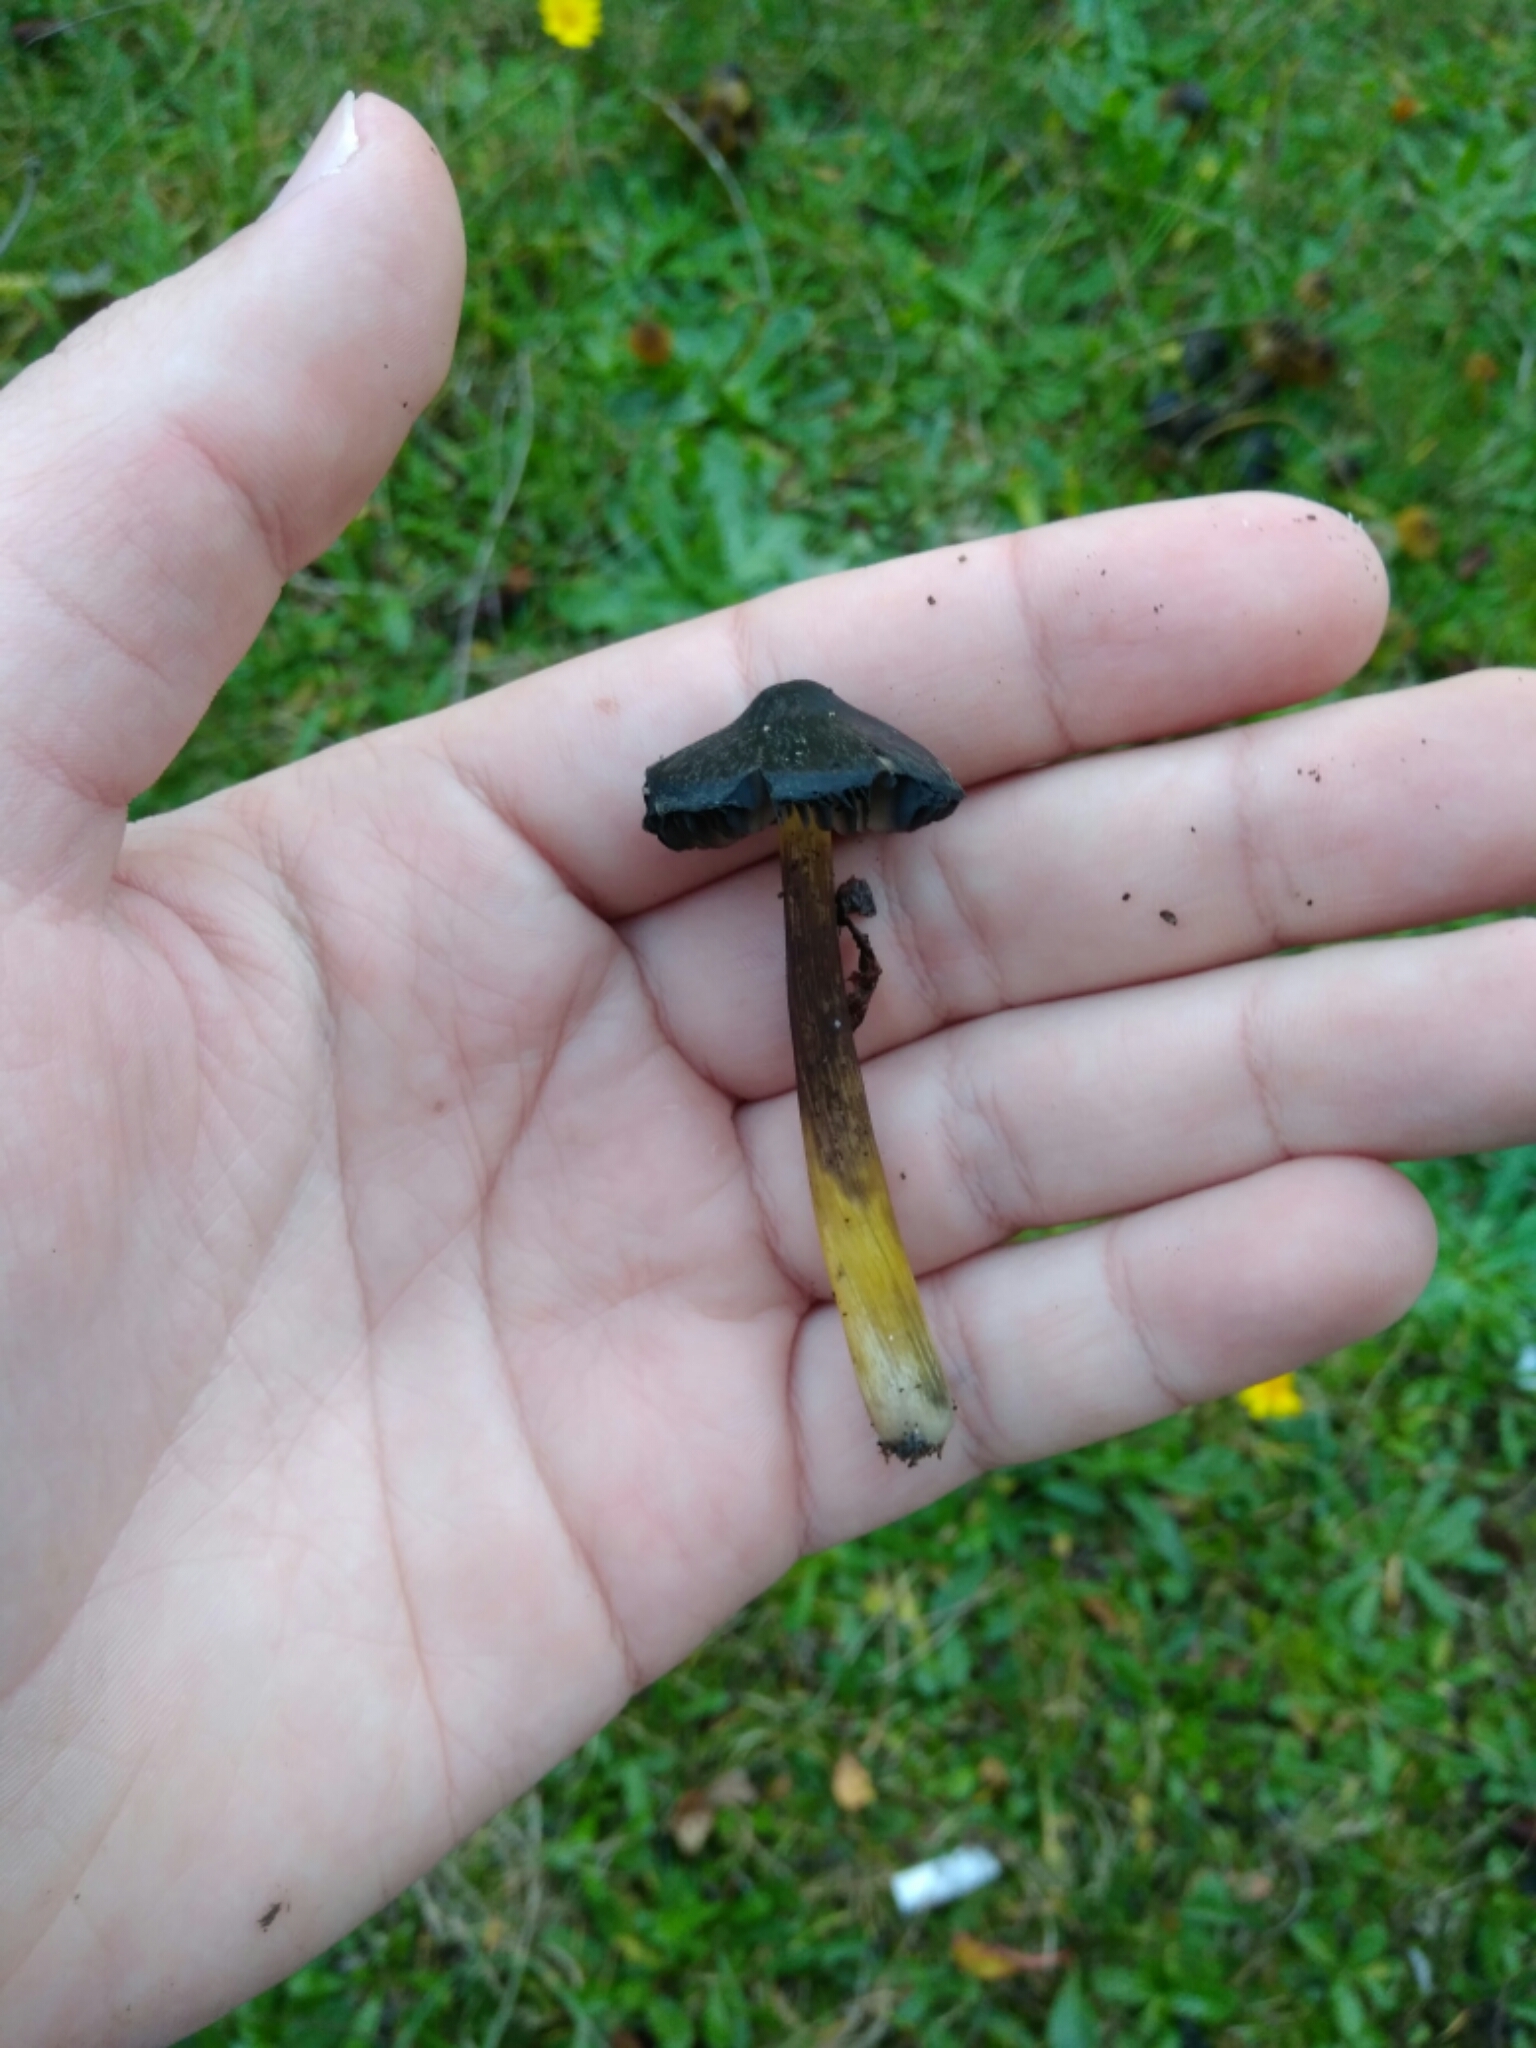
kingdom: Fungi
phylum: Basidiomycota
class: Agaricomycetes
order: Agaricales
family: Hygrophoraceae
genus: Hygrocybe
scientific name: Hygrocybe conica
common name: Blackening wax-cap
